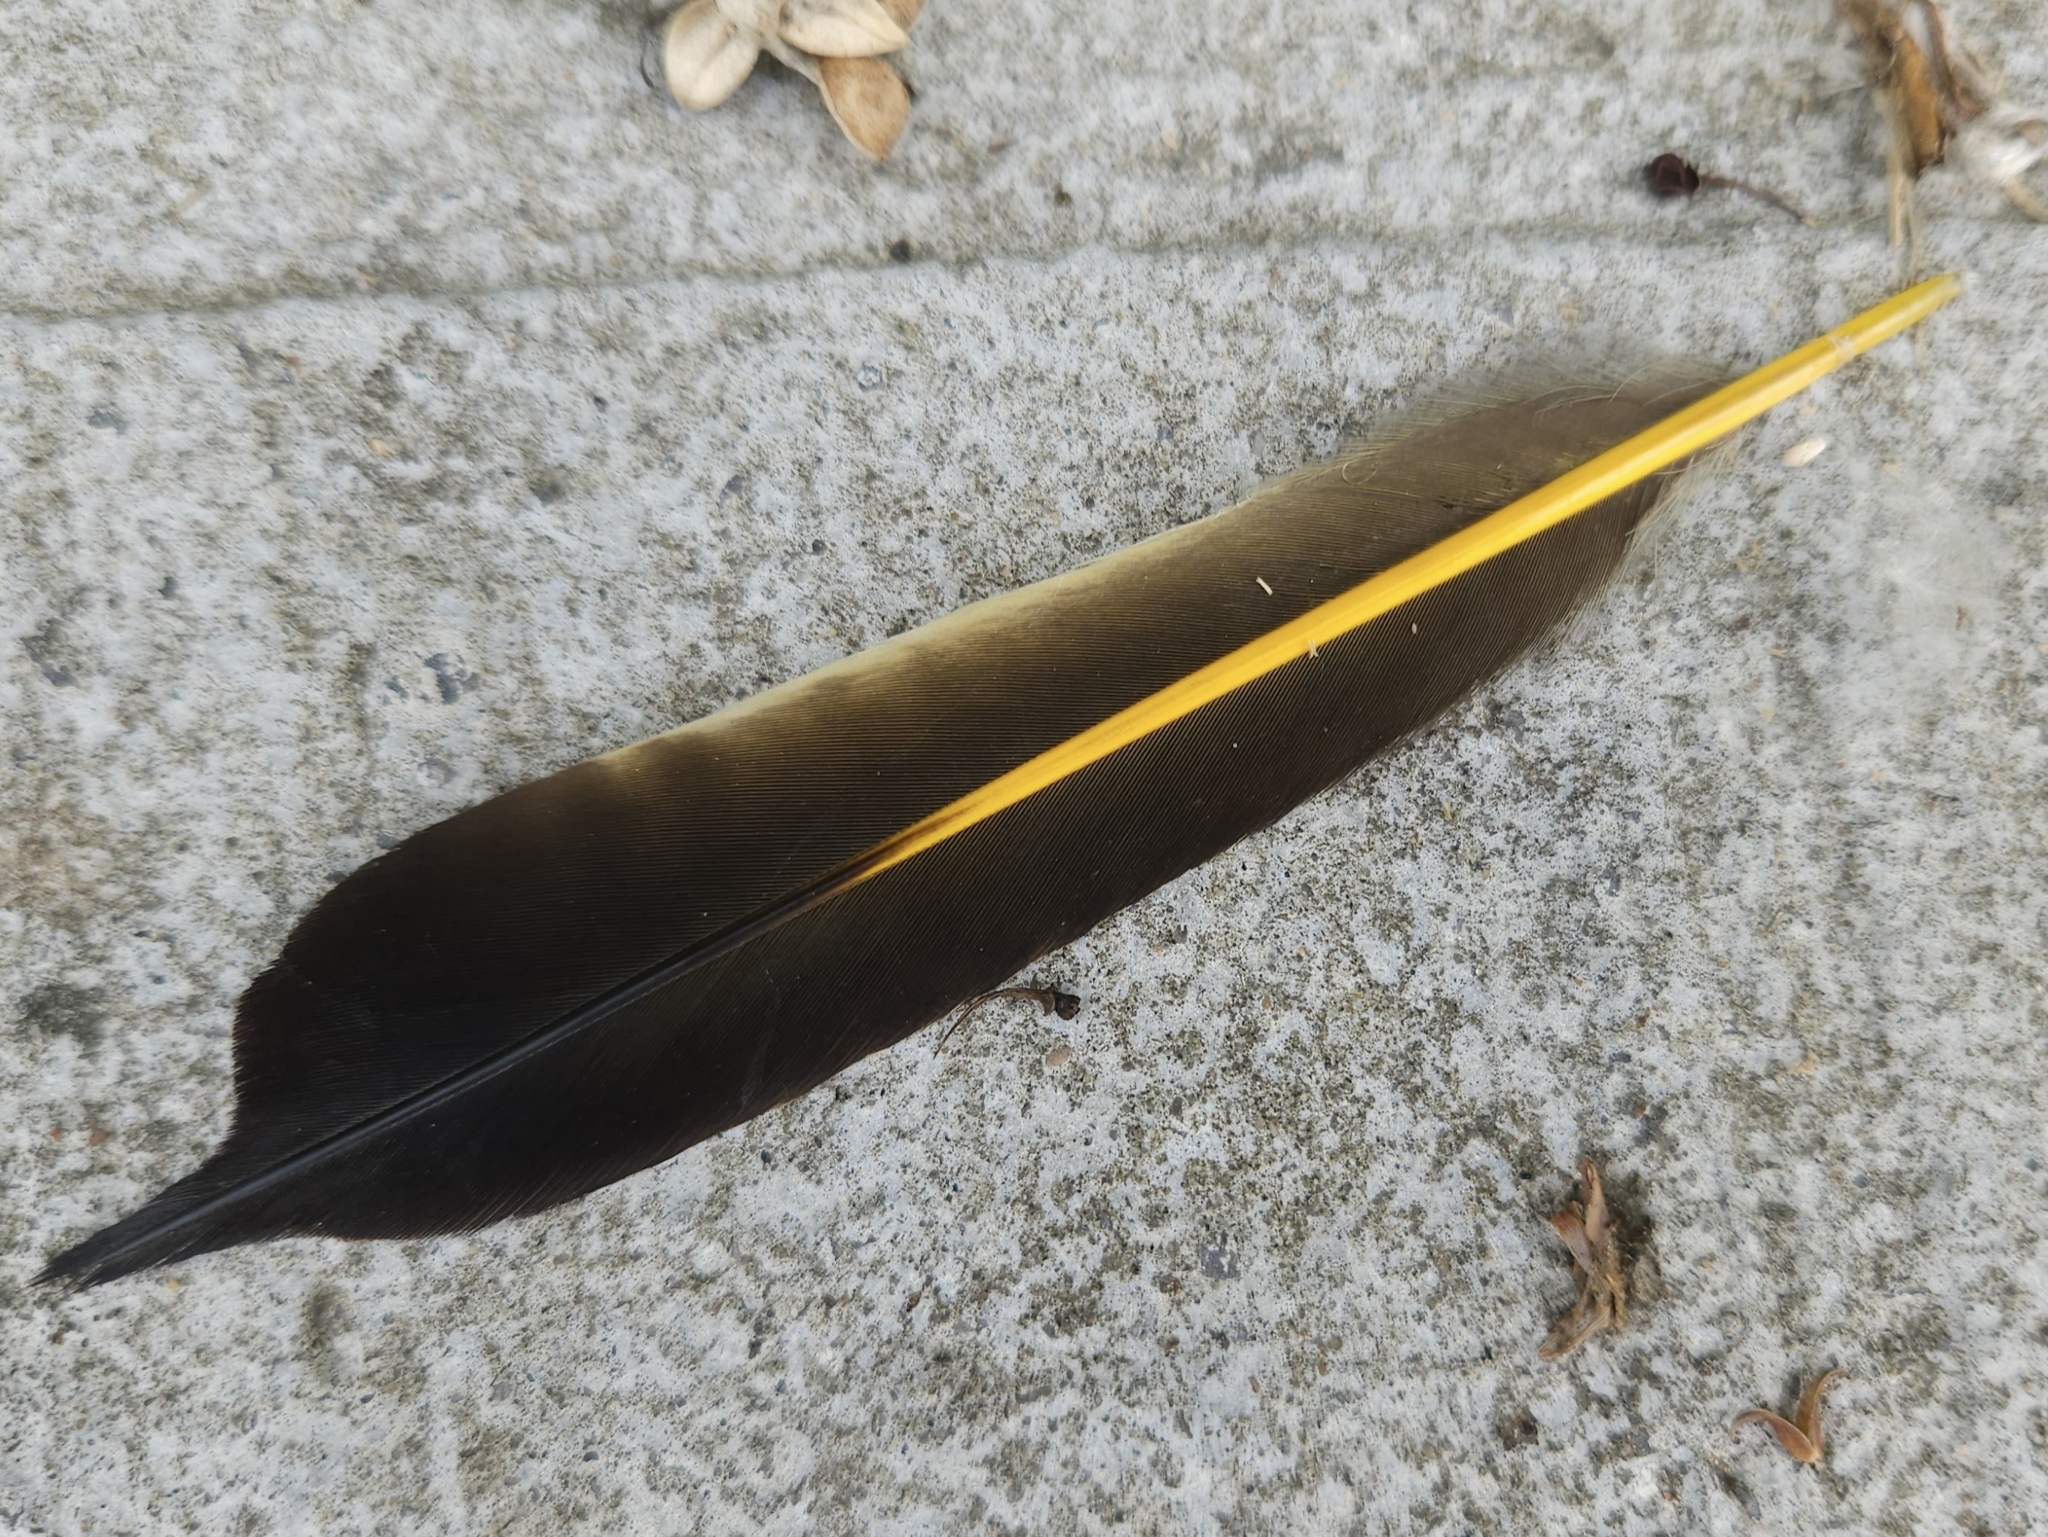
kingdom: Animalia
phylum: Chordata
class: Aves
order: Piciformes
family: Picidae
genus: Colaptes
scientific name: Colaptes auratus
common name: Northern flicker
